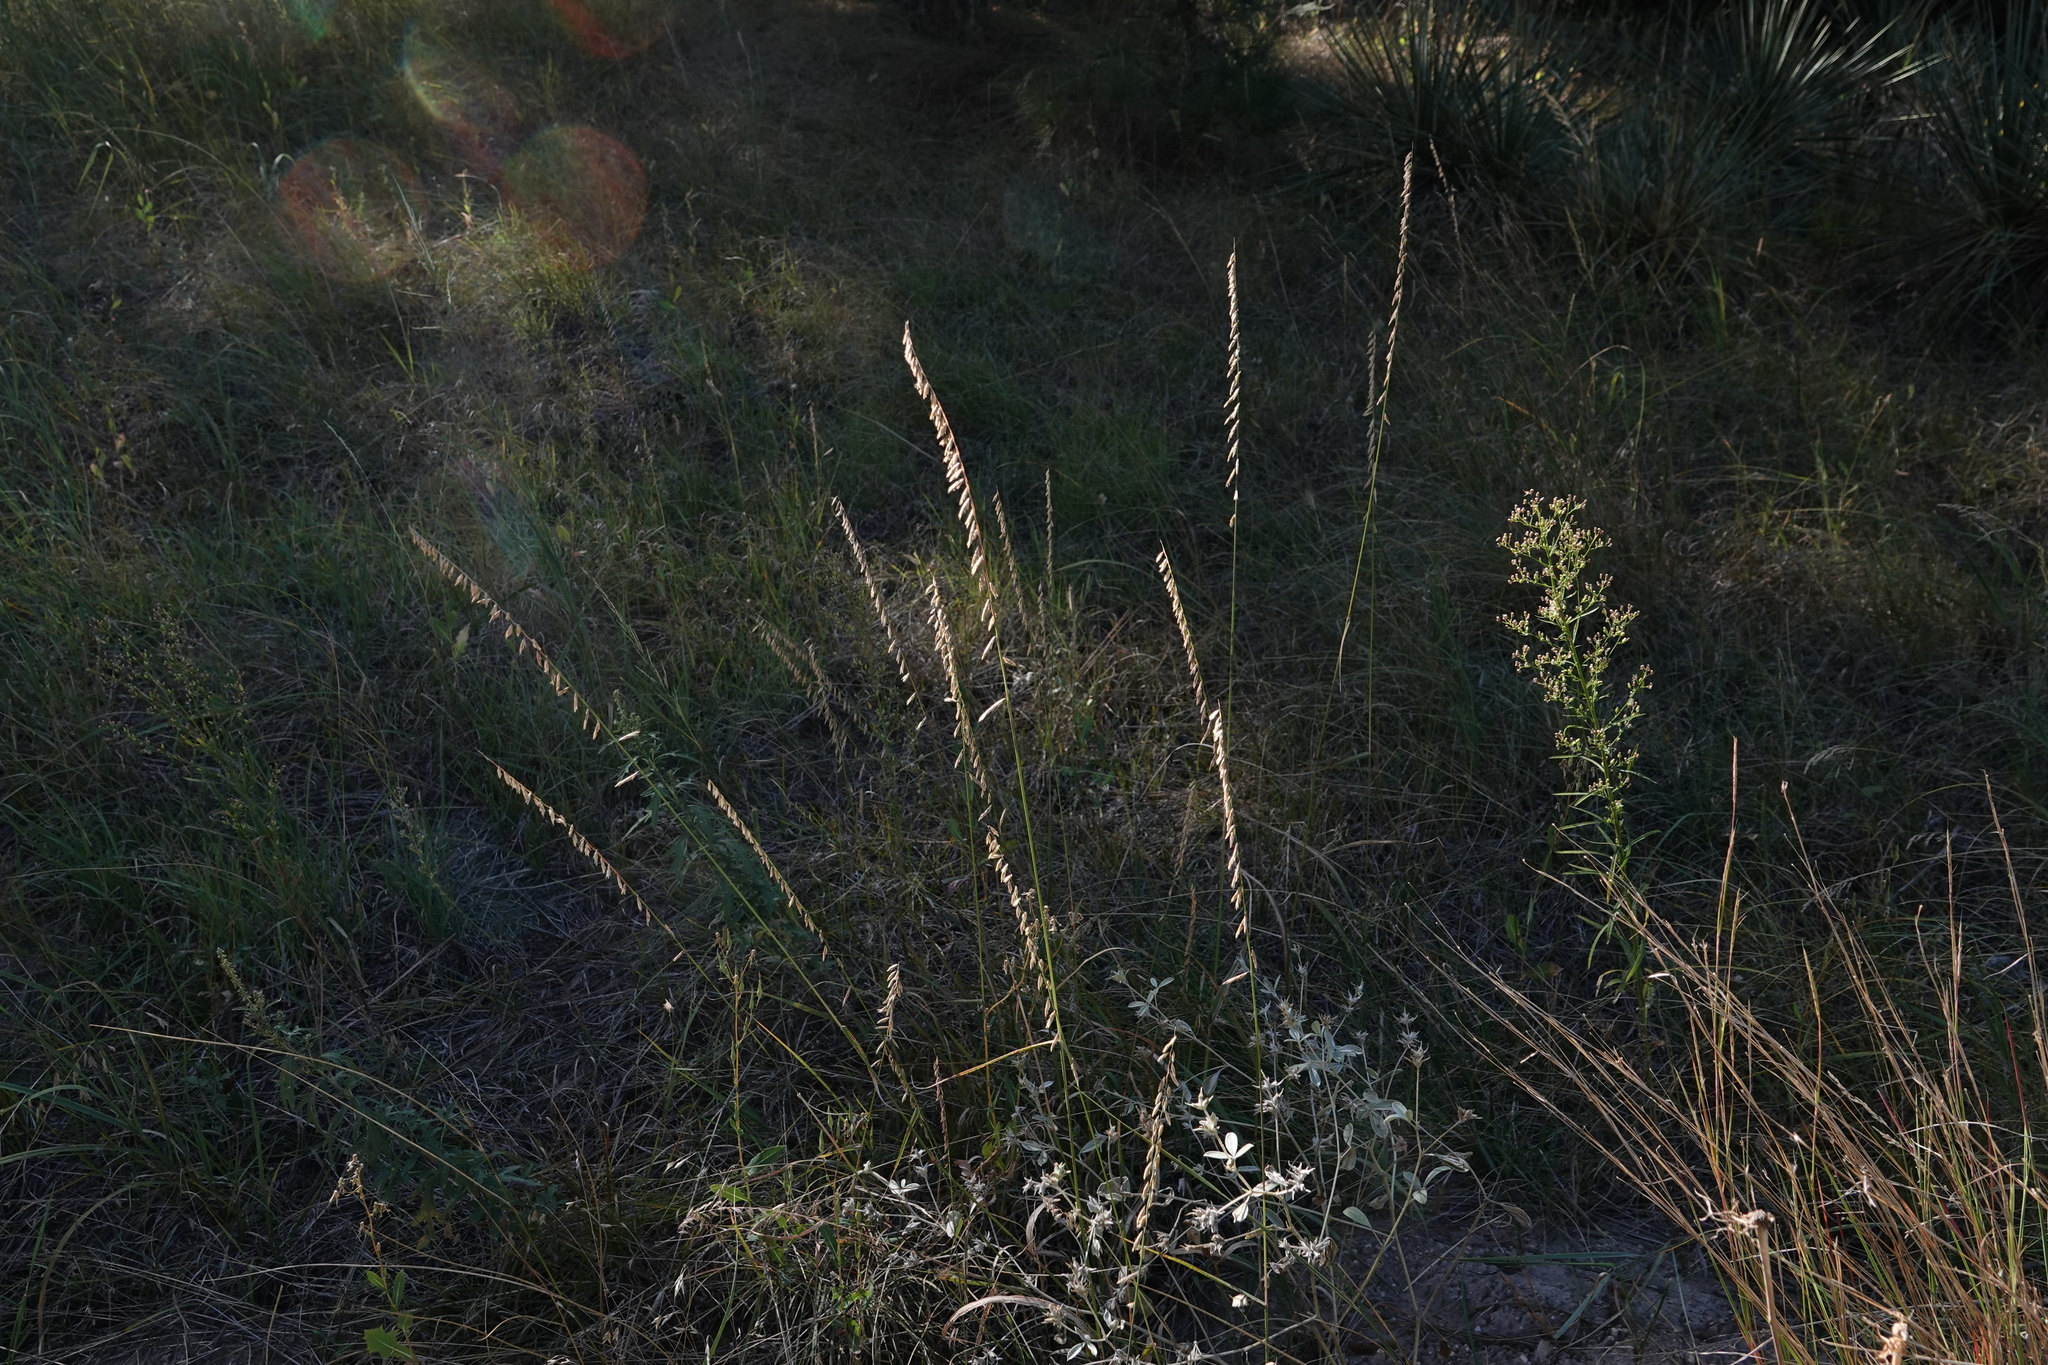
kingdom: Plantae
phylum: Tracheophyta
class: Liliopsida
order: Poales
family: Poaceae
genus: Bouteloua
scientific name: Bouteloua curtipendula
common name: Side-oats grama
